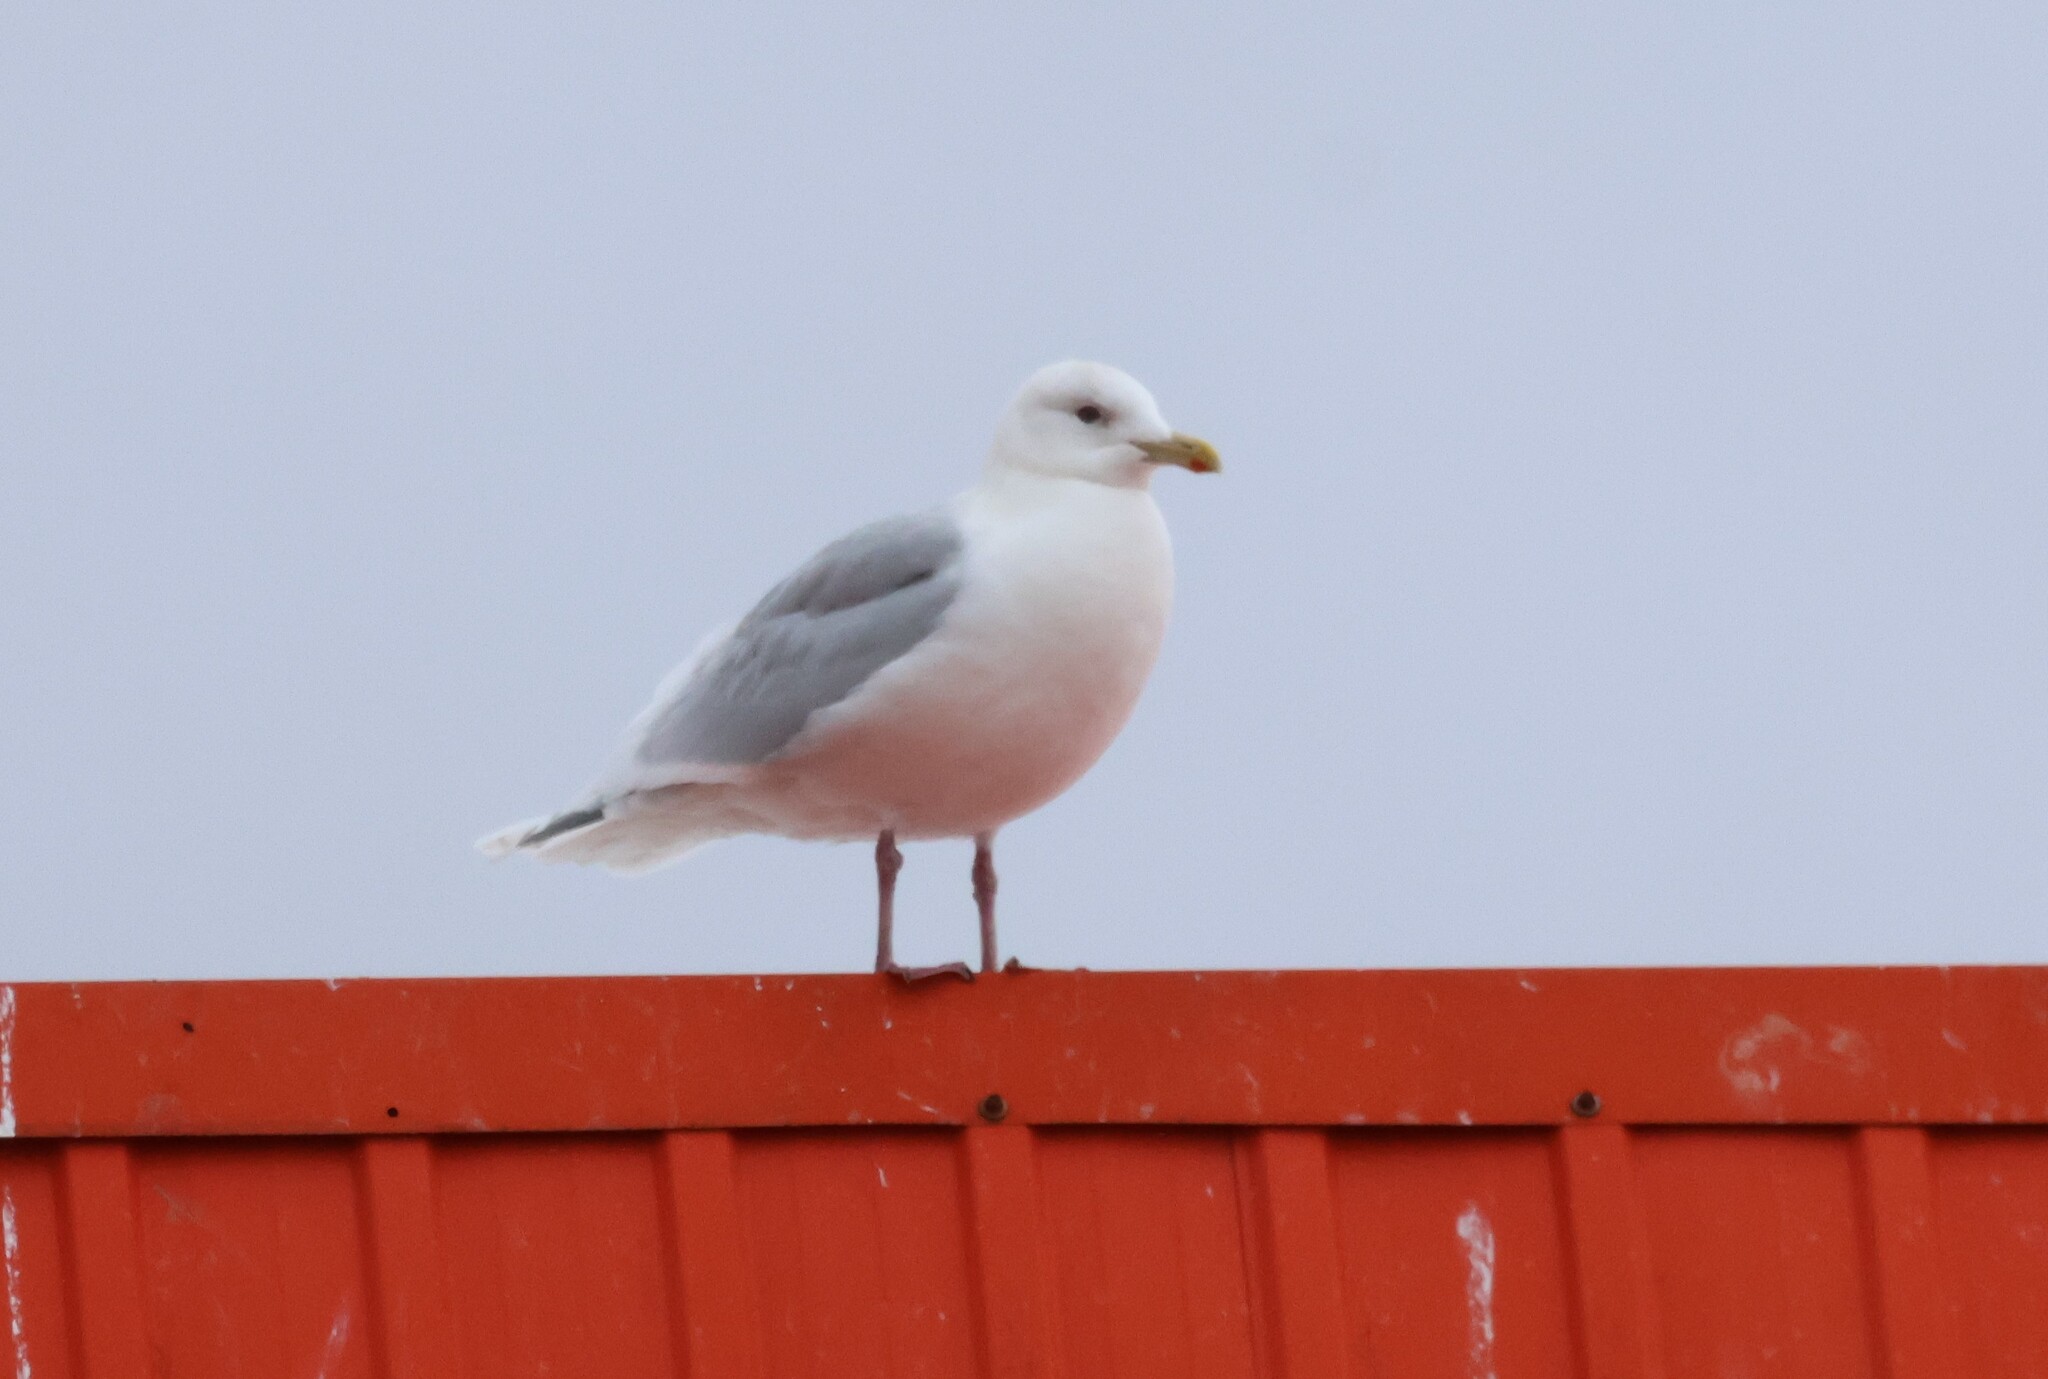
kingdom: Animalia
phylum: Chordata
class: Aves
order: Charadriiformes
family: Laridae
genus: Larus
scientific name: Larus glaucoides
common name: Iceland gull
